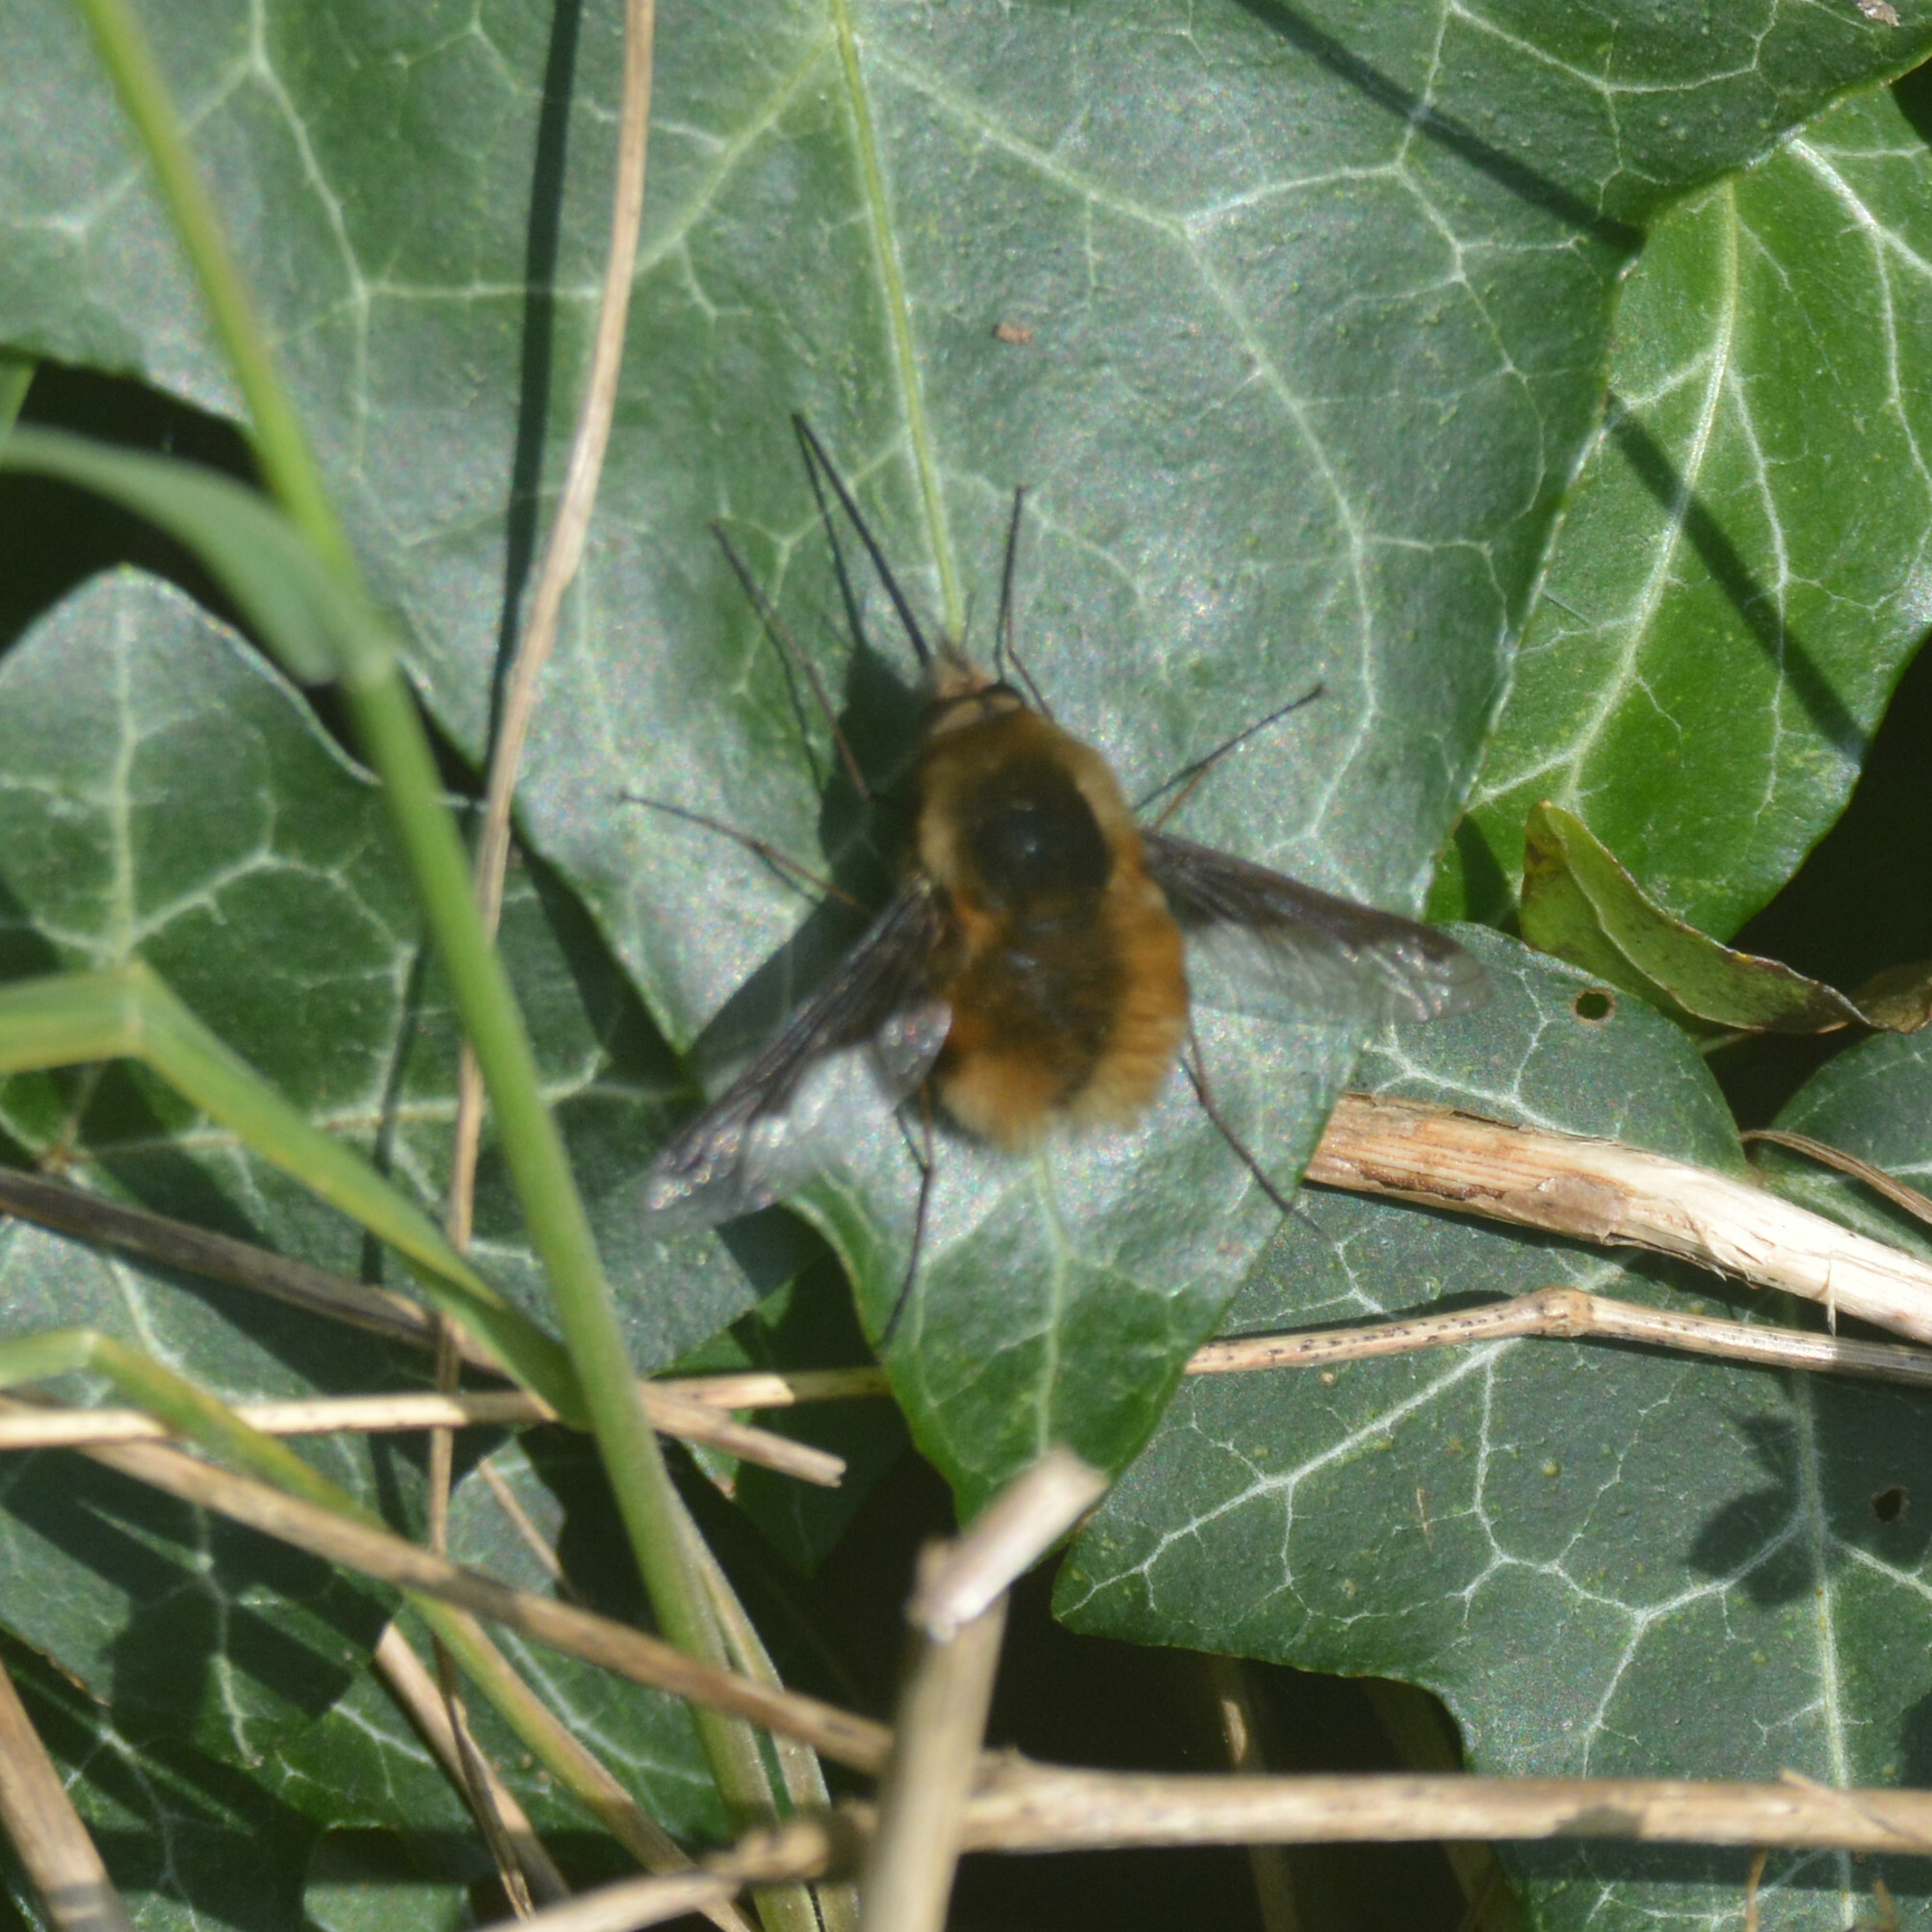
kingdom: Animalia
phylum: Arthropoda
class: Insecta
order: Diptera
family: Bombyliidae
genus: Bombylius
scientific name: Bombylius major
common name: Bee fly
